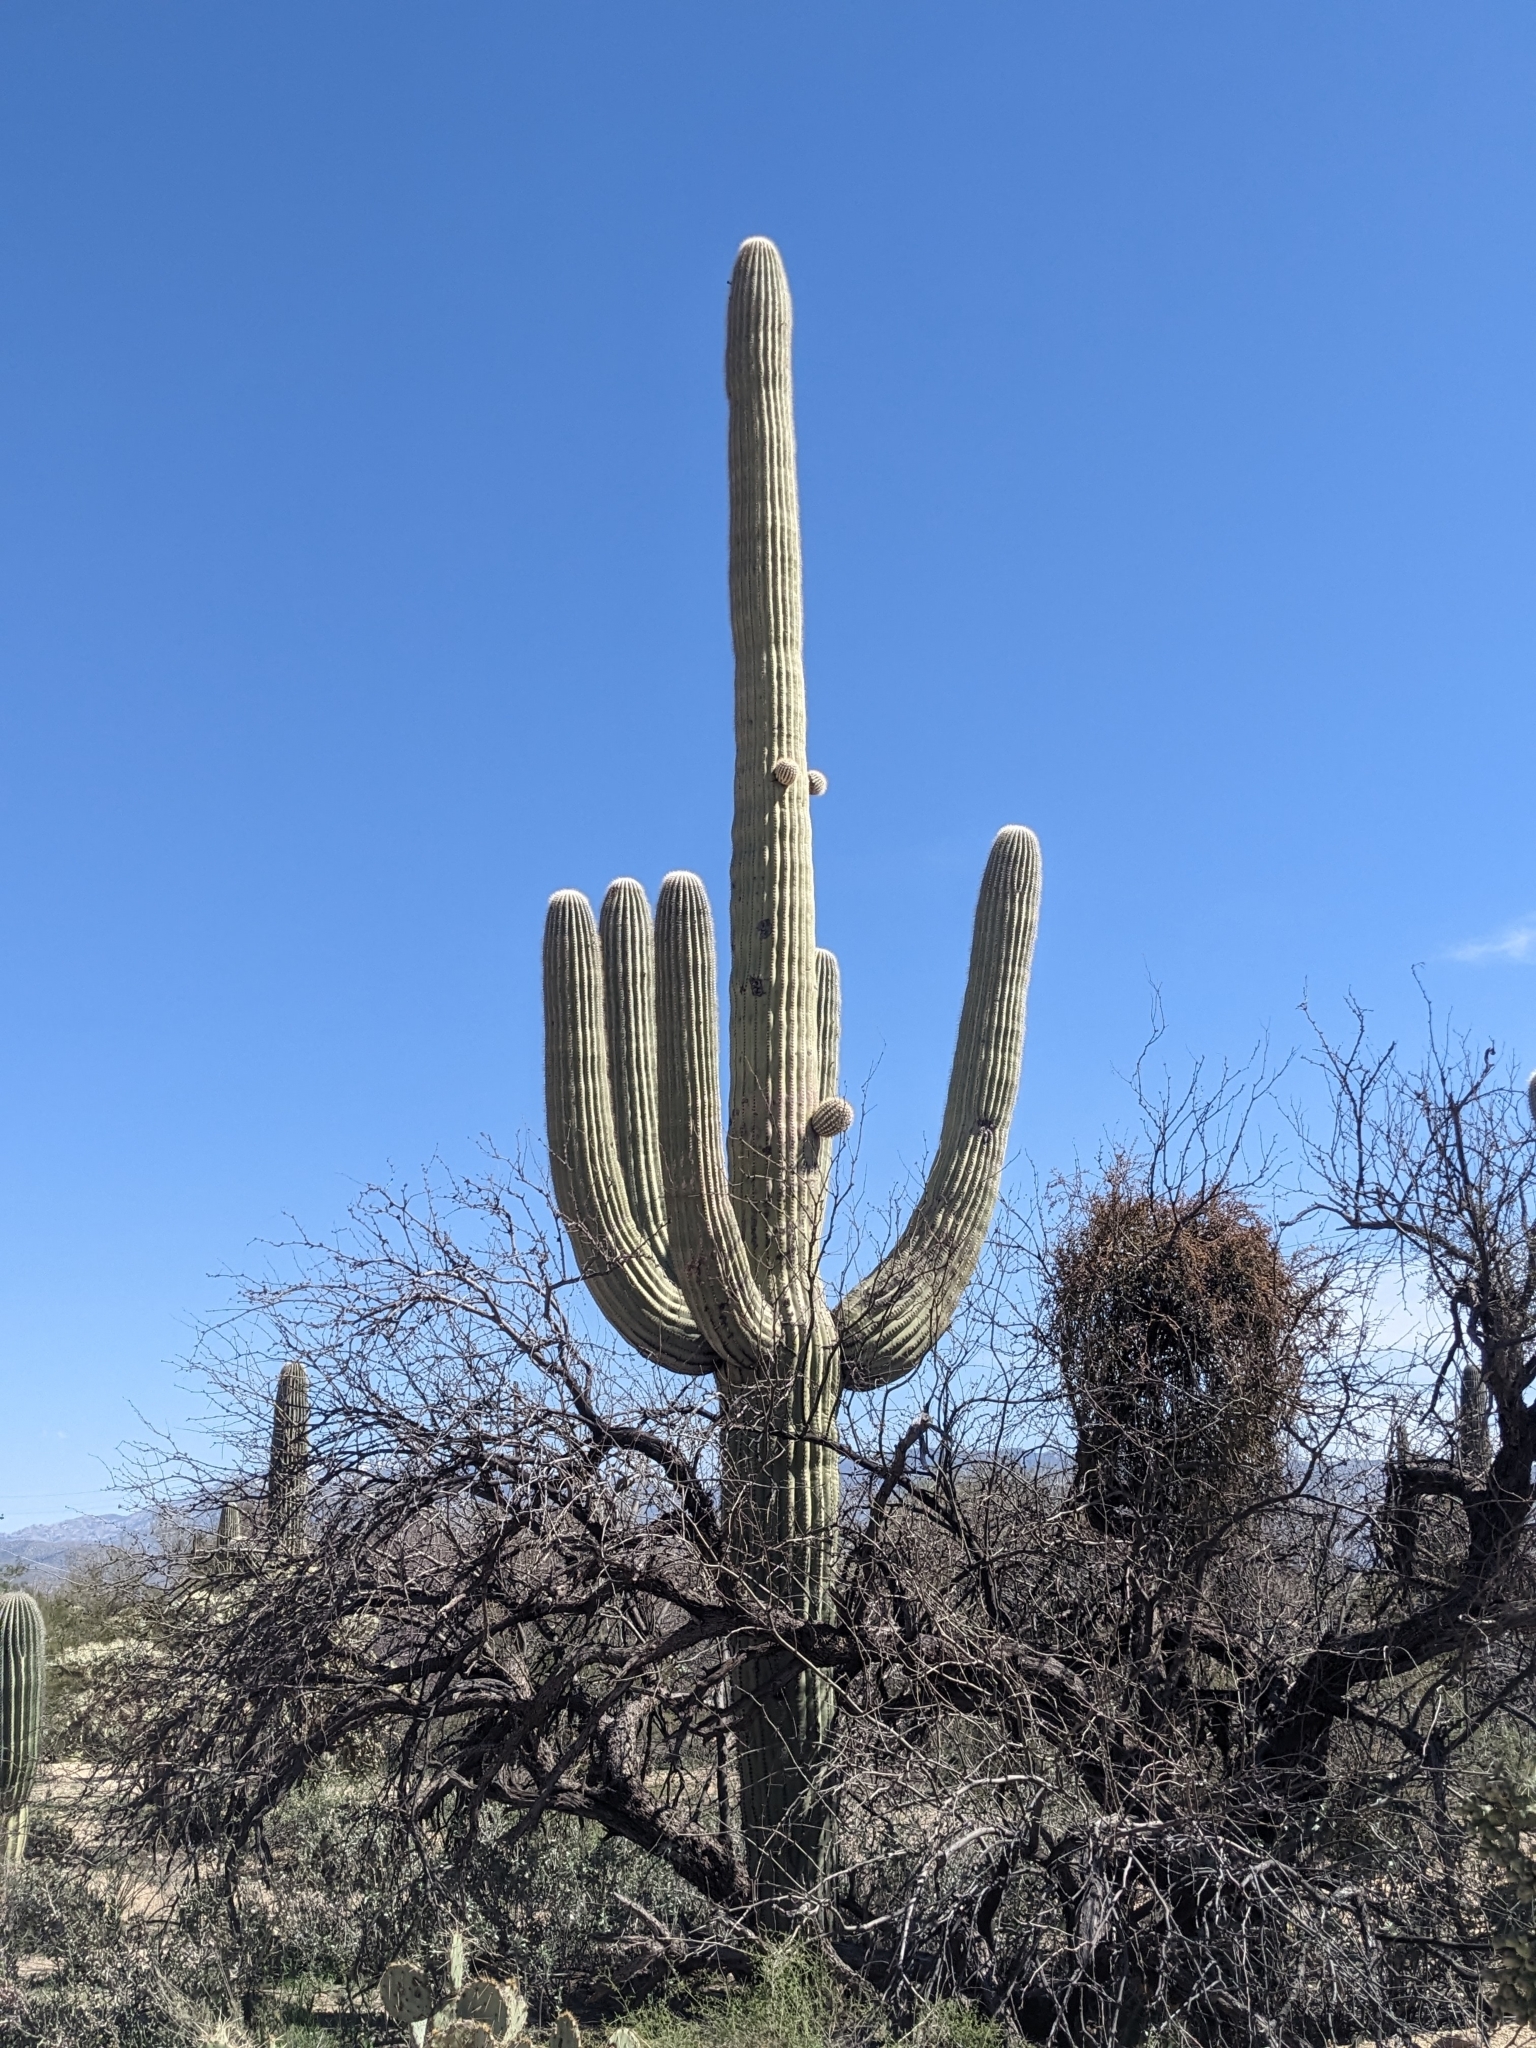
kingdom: Plantae
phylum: Tracheophyta
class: Magnoliopsida
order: Caryophyllales
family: Cactaceae
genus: Carnegiea
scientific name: Carnegiea gigantea
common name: Saguaro
